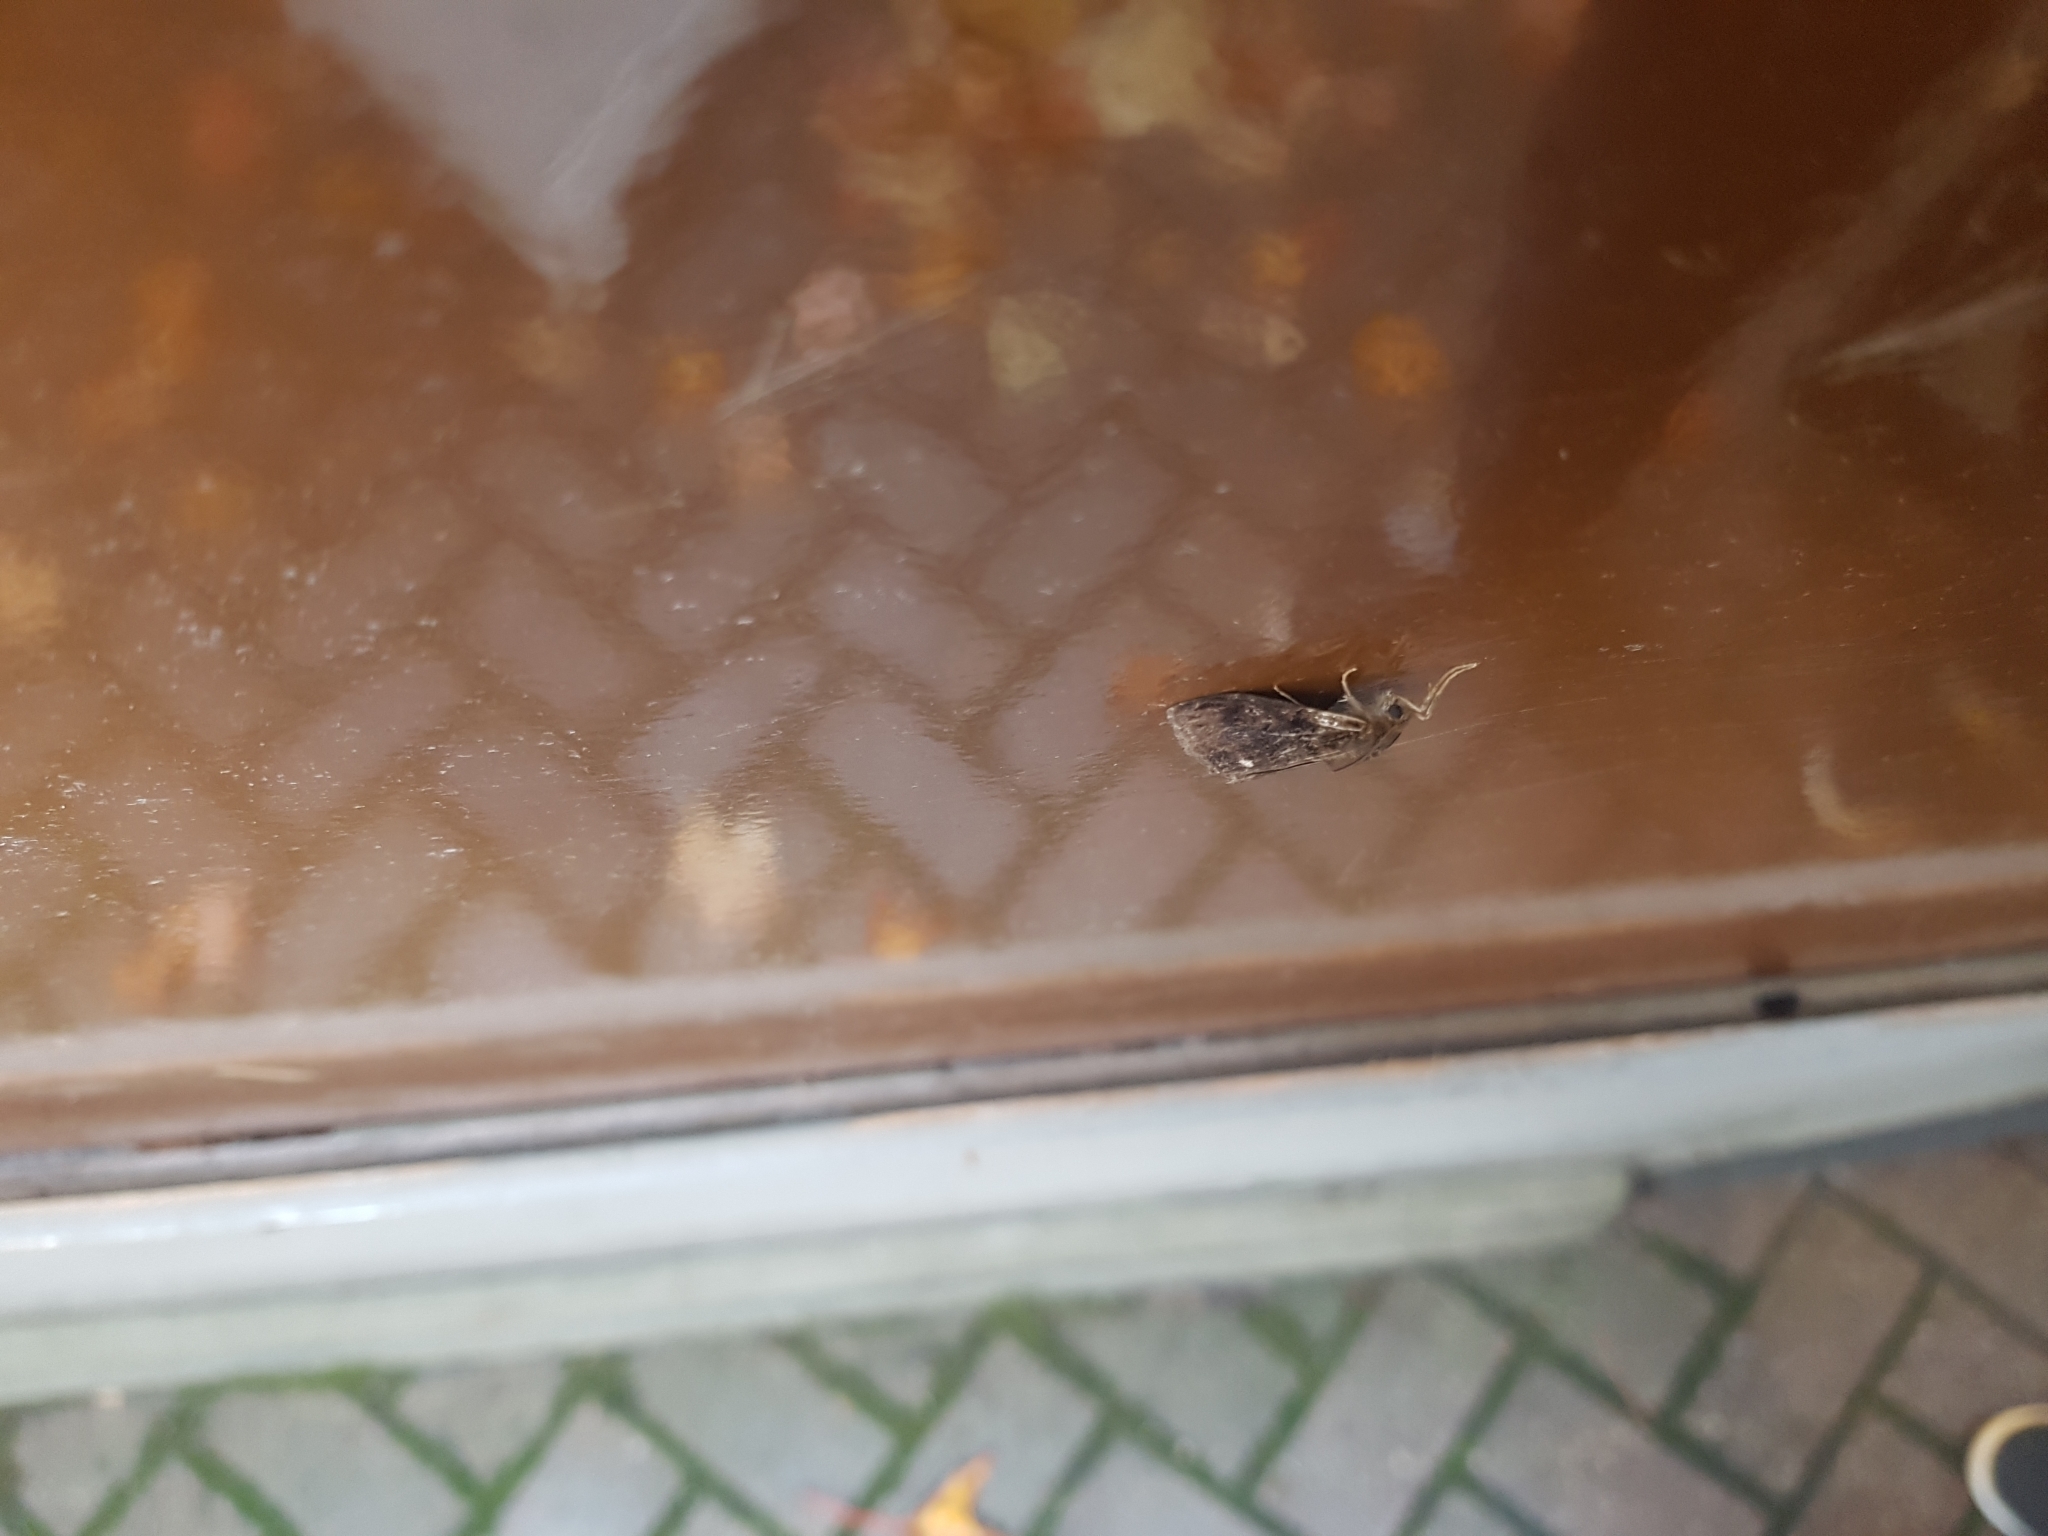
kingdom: Animalia
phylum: Arthropoda
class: Insecta
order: Lepidoptera
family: Erebidae
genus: Orgyia
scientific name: Orgyia definita
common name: Definite tussock moth
